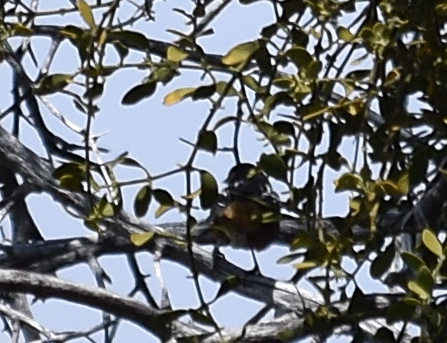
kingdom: Animalia
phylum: Chordata
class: Aves
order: Passeriformes
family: Passerellidae
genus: Pipilo
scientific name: Pipilo maculatus
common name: Spotted towhee
